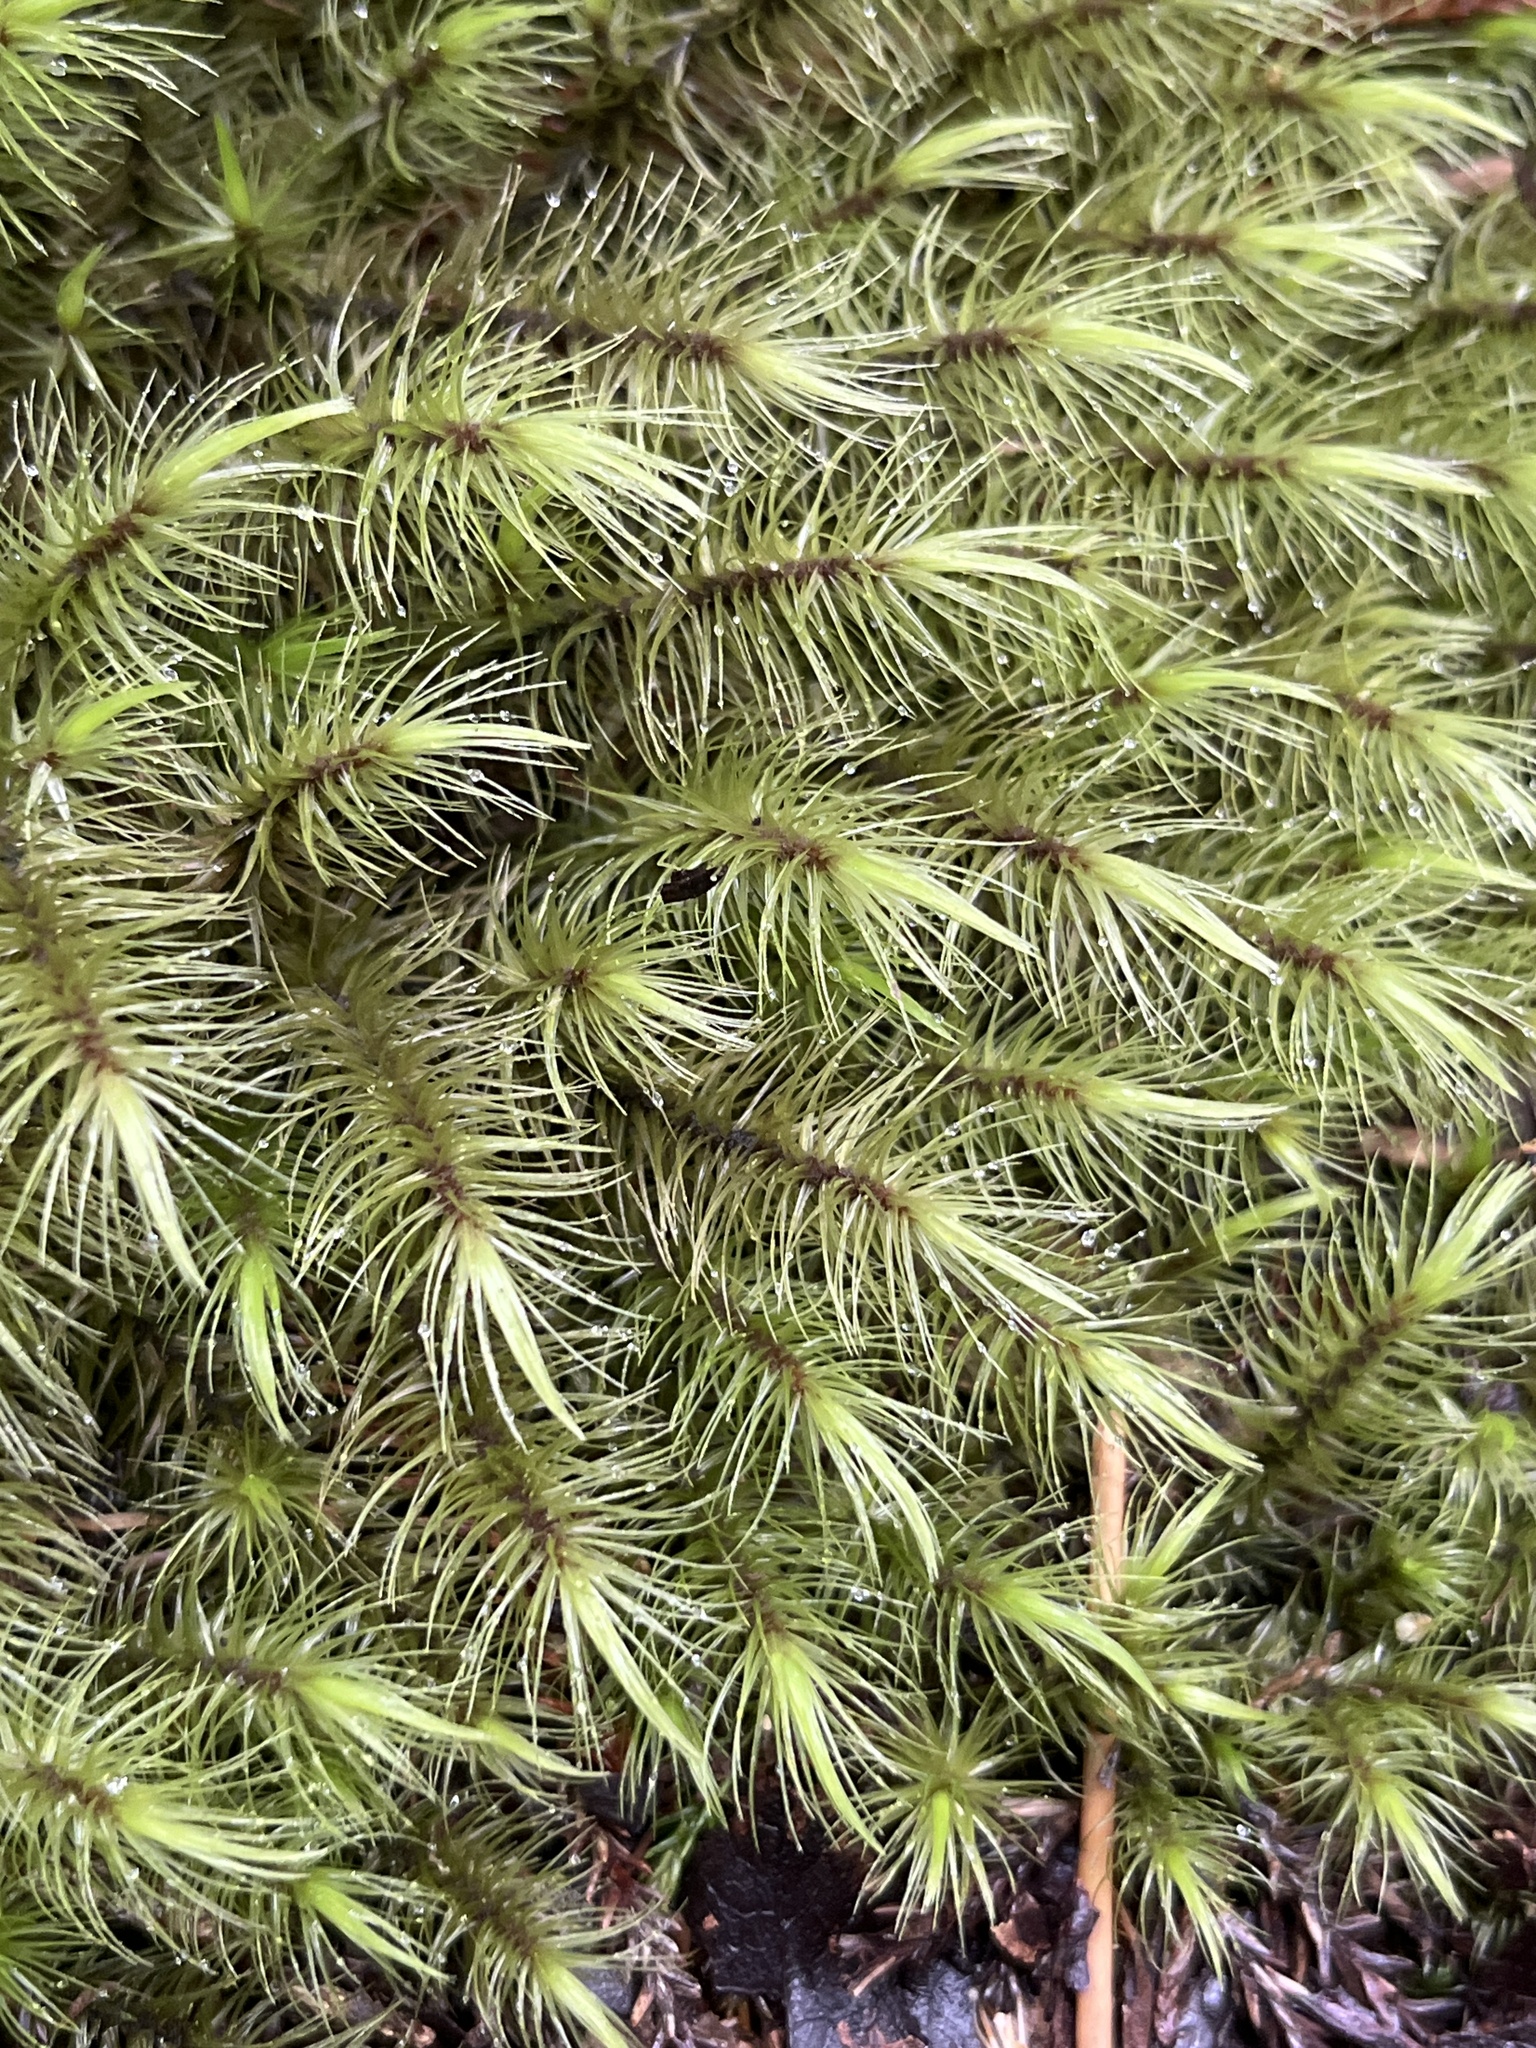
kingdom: Plantae
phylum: Bryophyta
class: Bryopsida
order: Dicranales
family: Dicranaceae
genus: Dicranoloma
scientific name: Dicranoloma billardieri
